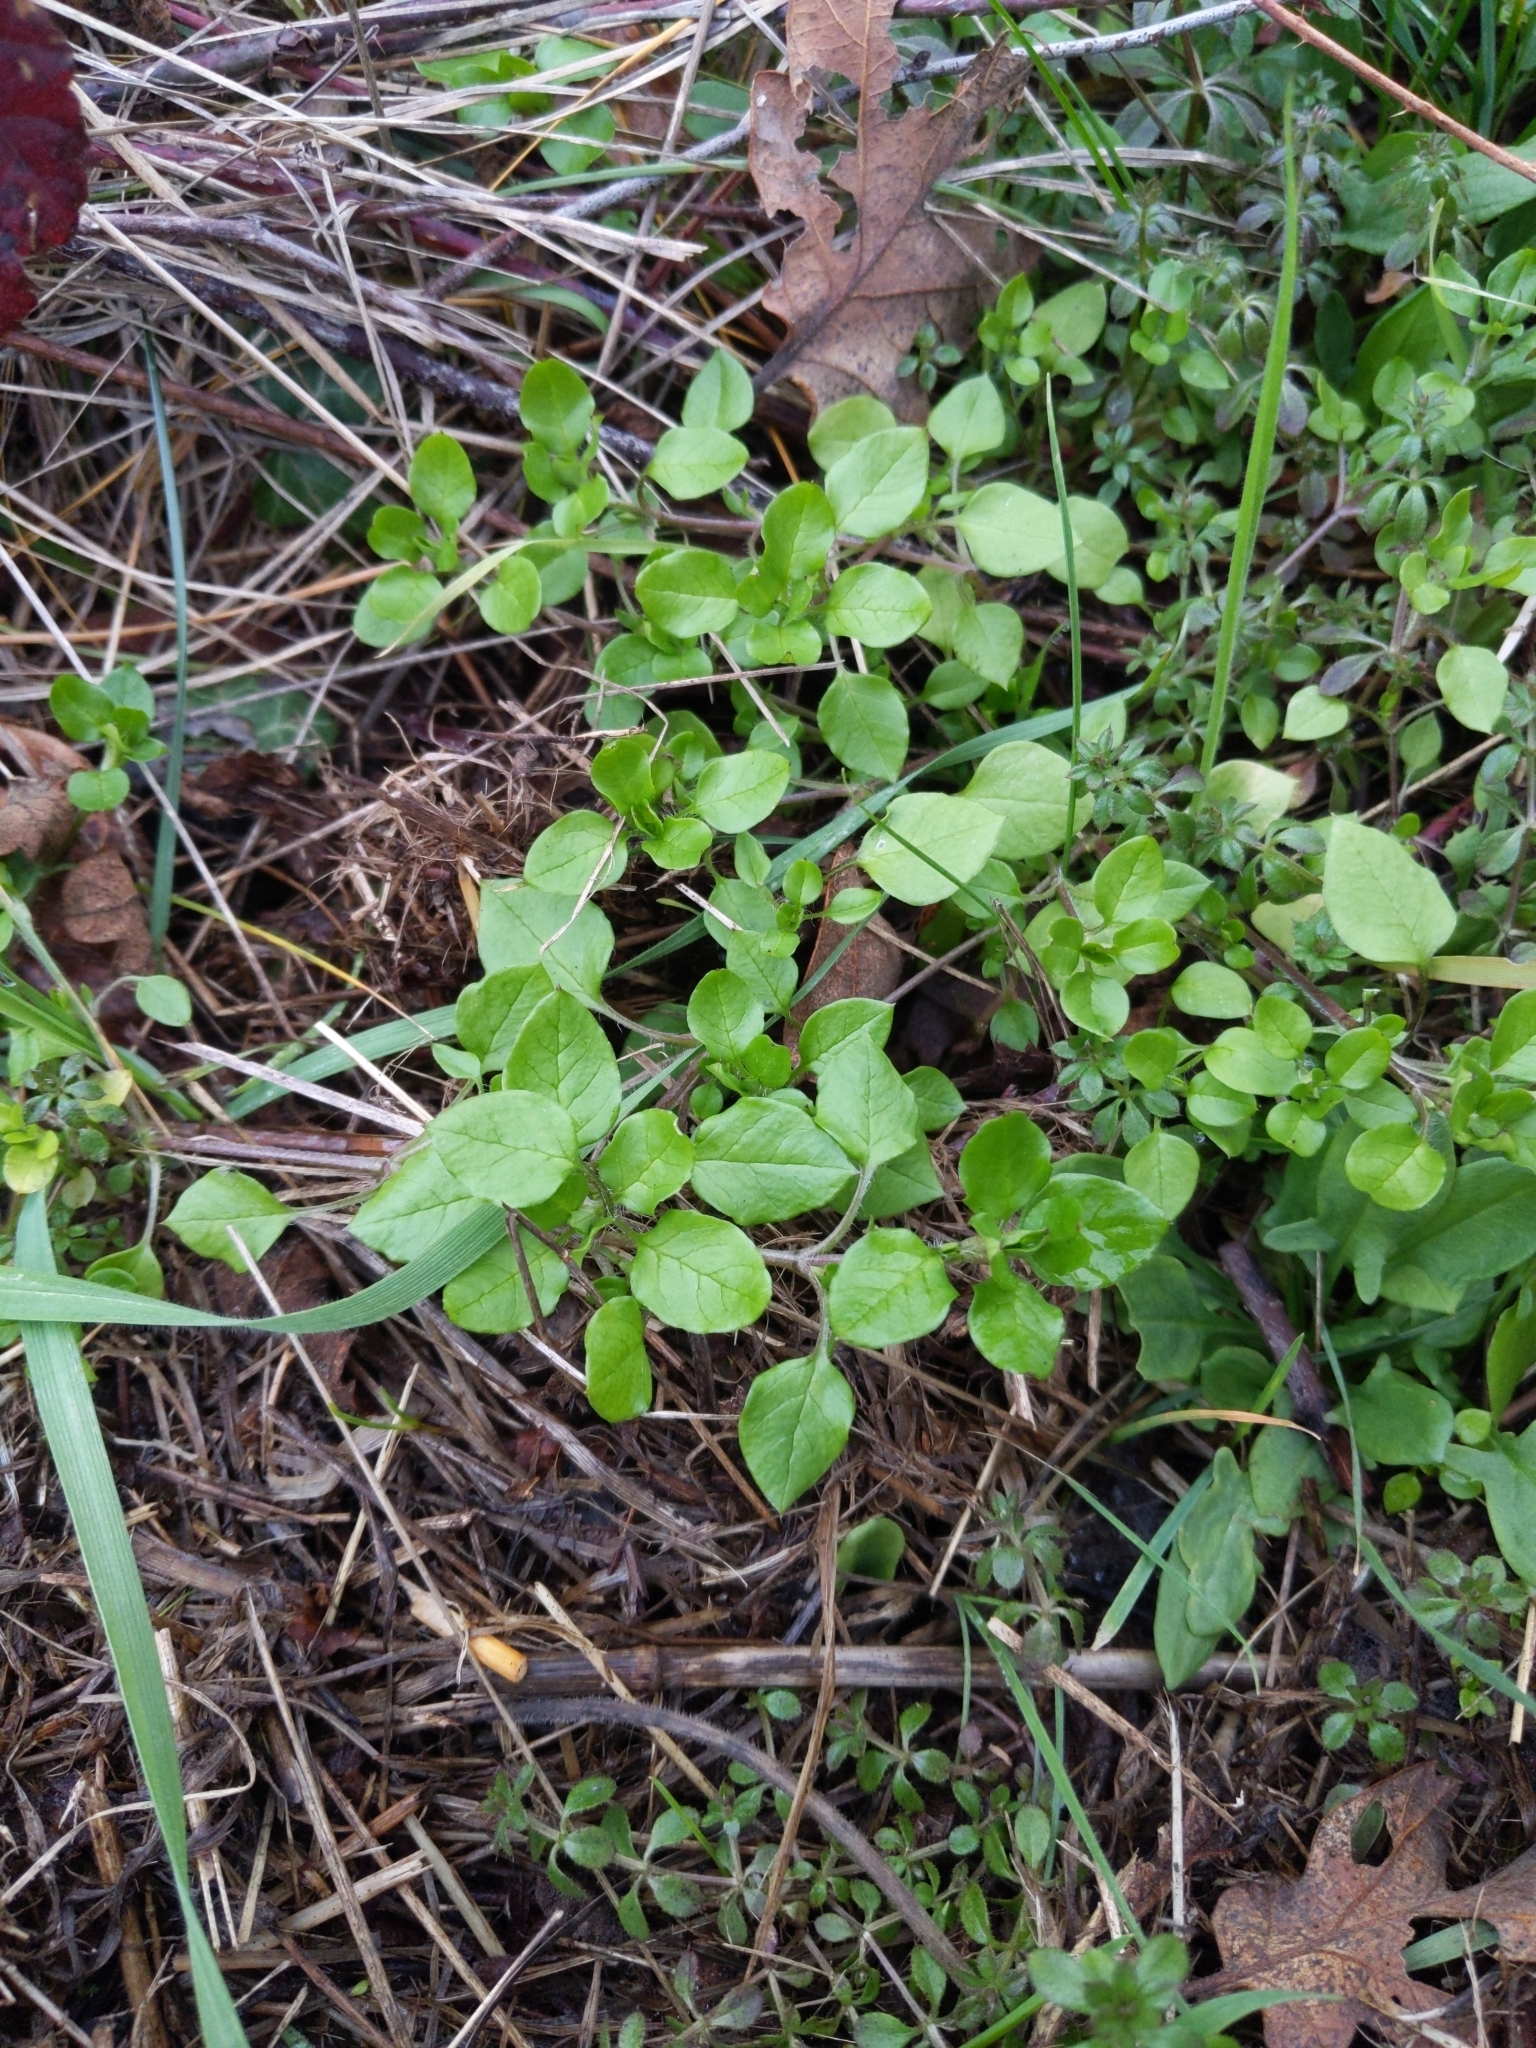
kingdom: Plantae
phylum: Tracheophyta
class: Magnoliopsida
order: Caryophyllales
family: Caryophyllaceae
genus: Stellaria
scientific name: Stellaria media
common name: Common chickweed
